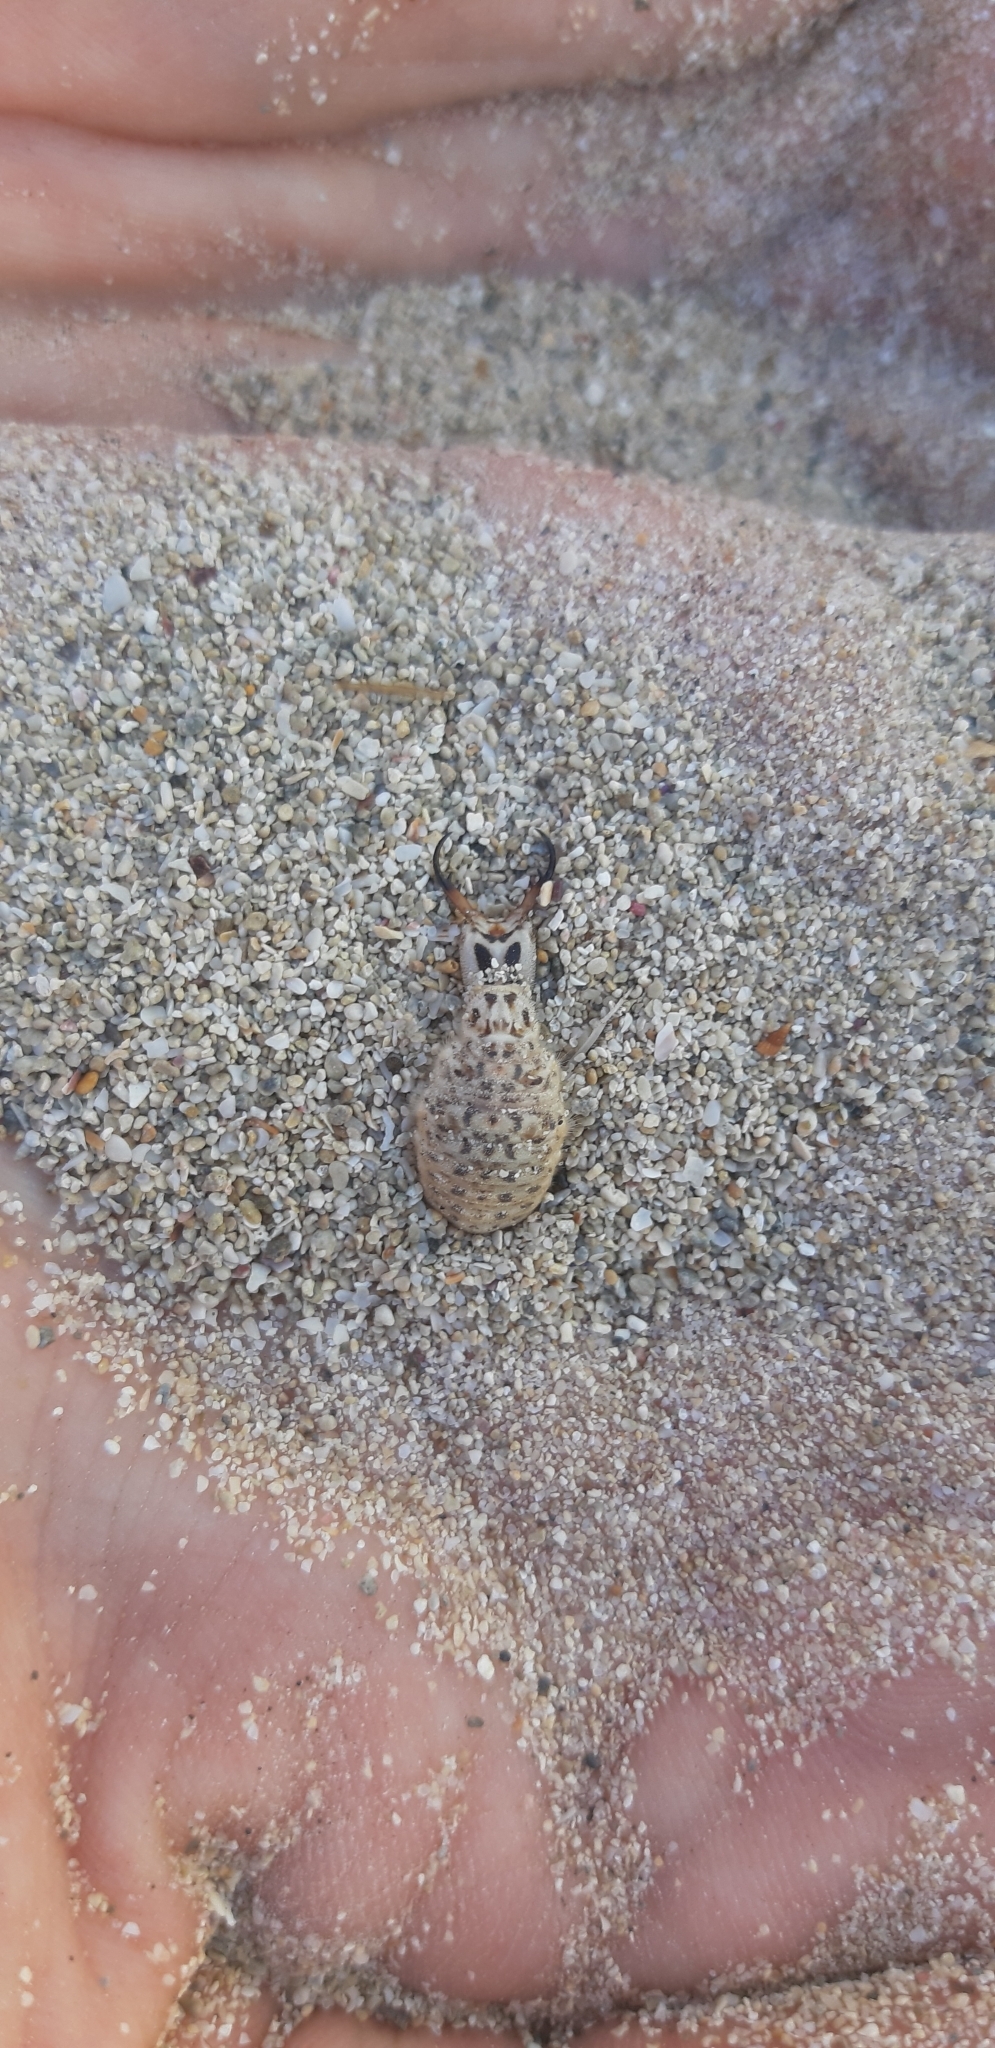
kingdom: Animalia
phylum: Arthropoda
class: Insecta
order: Neuroptera
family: Myrmeleontidae
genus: Synclisis
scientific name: Synclisis baetica
